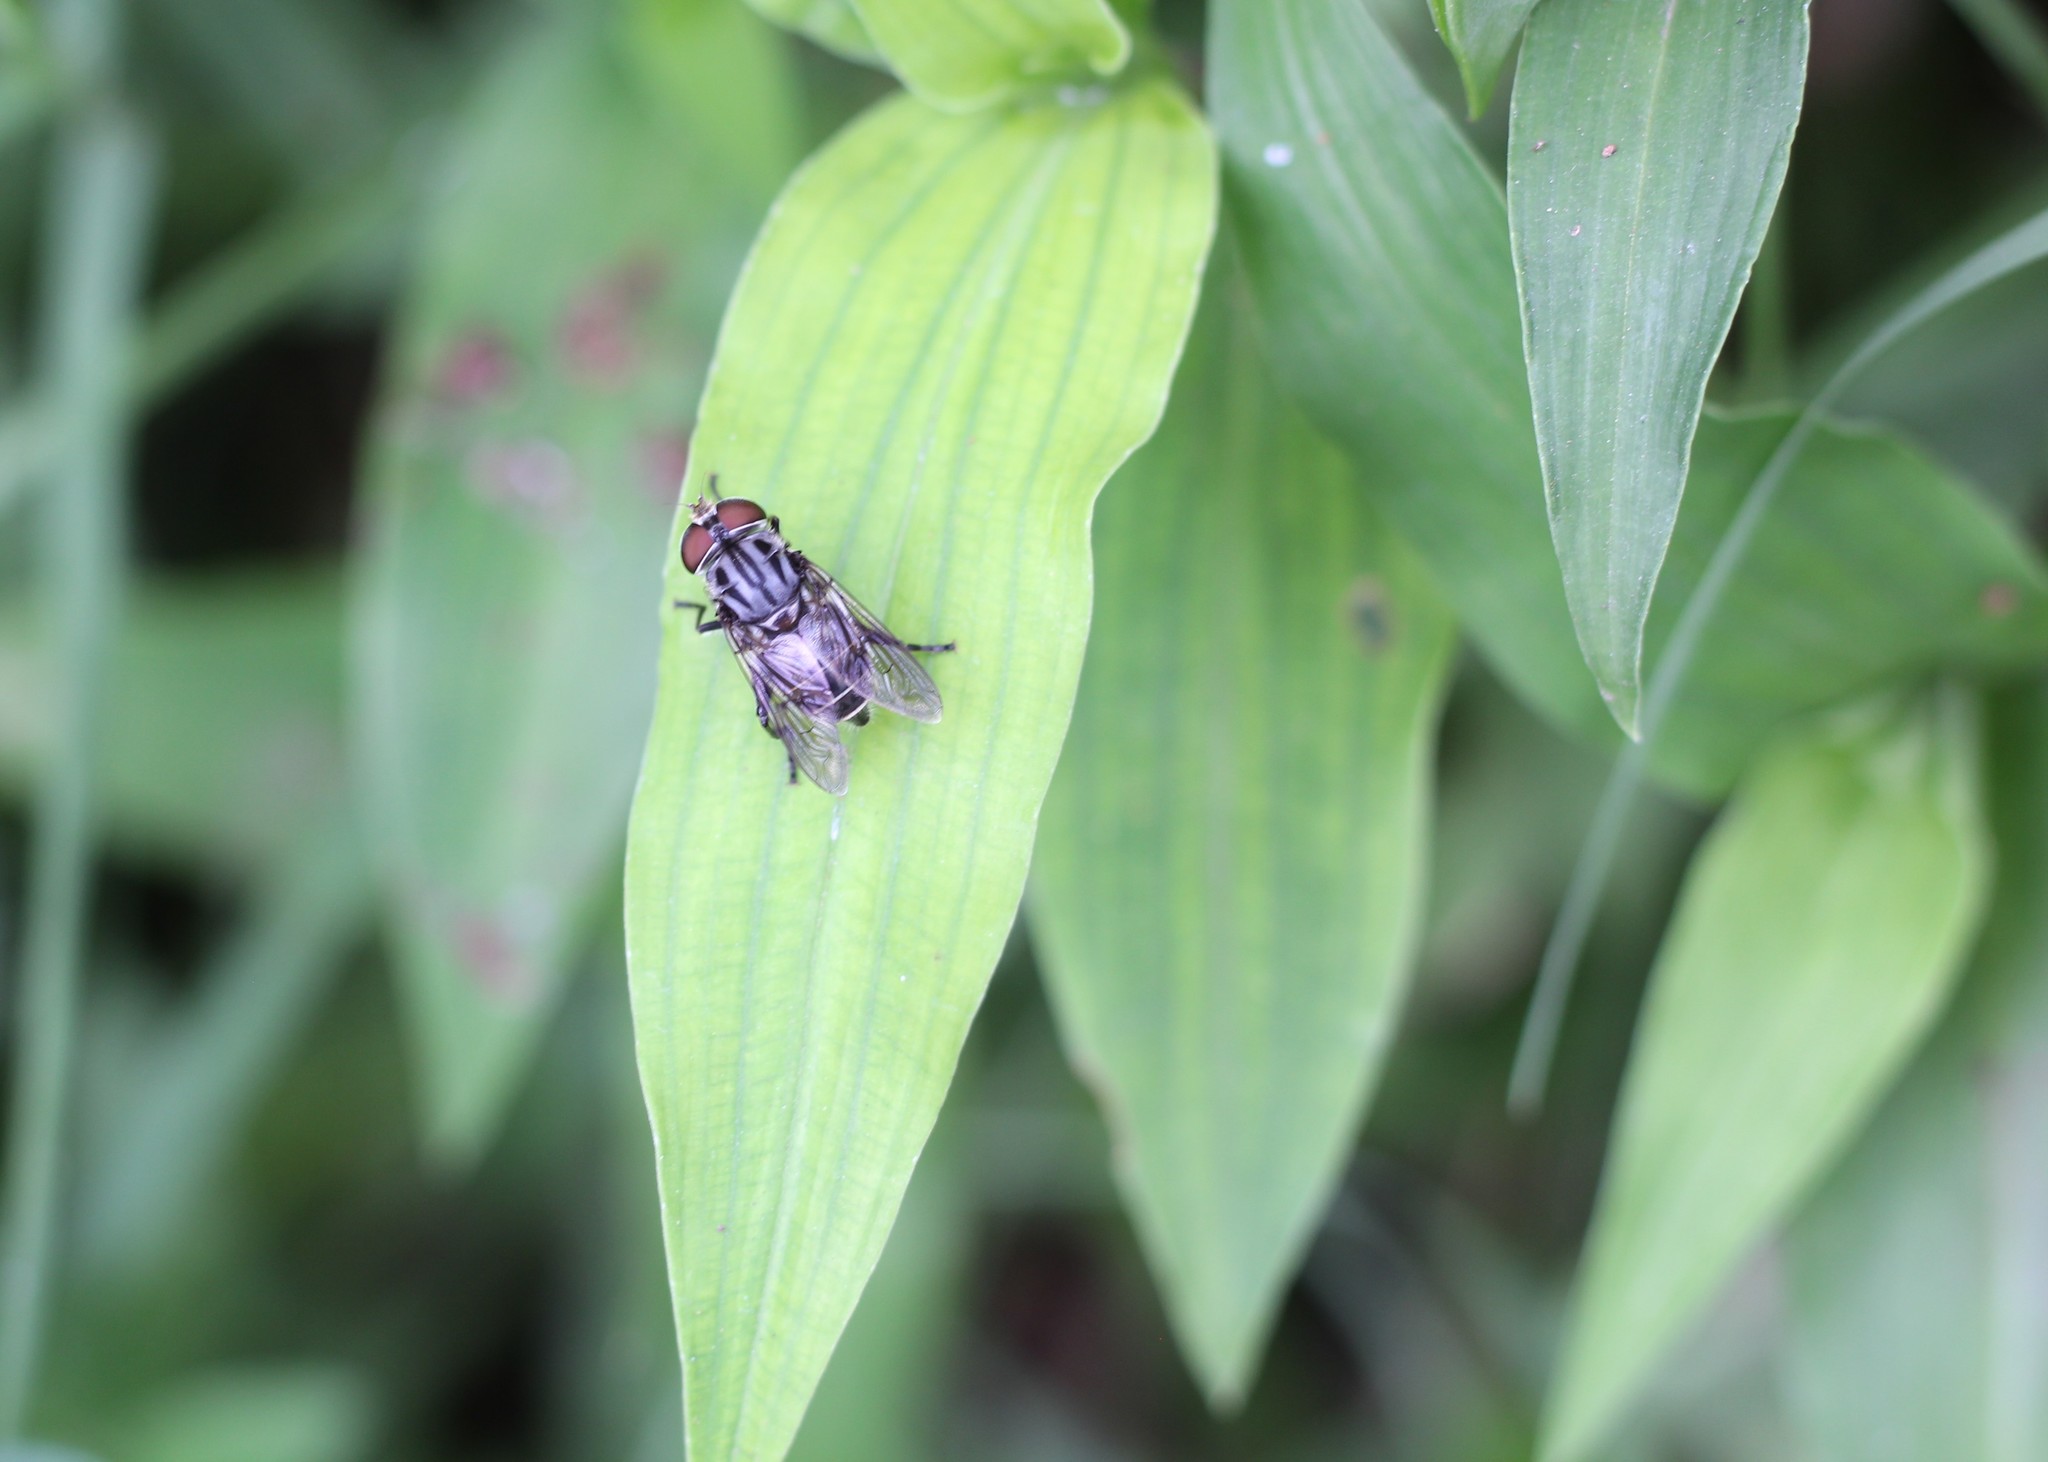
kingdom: Animalia
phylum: Arthropoda
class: Insecta
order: Diptera
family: Syrphidae
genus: Palpada
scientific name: Palpada furcata
